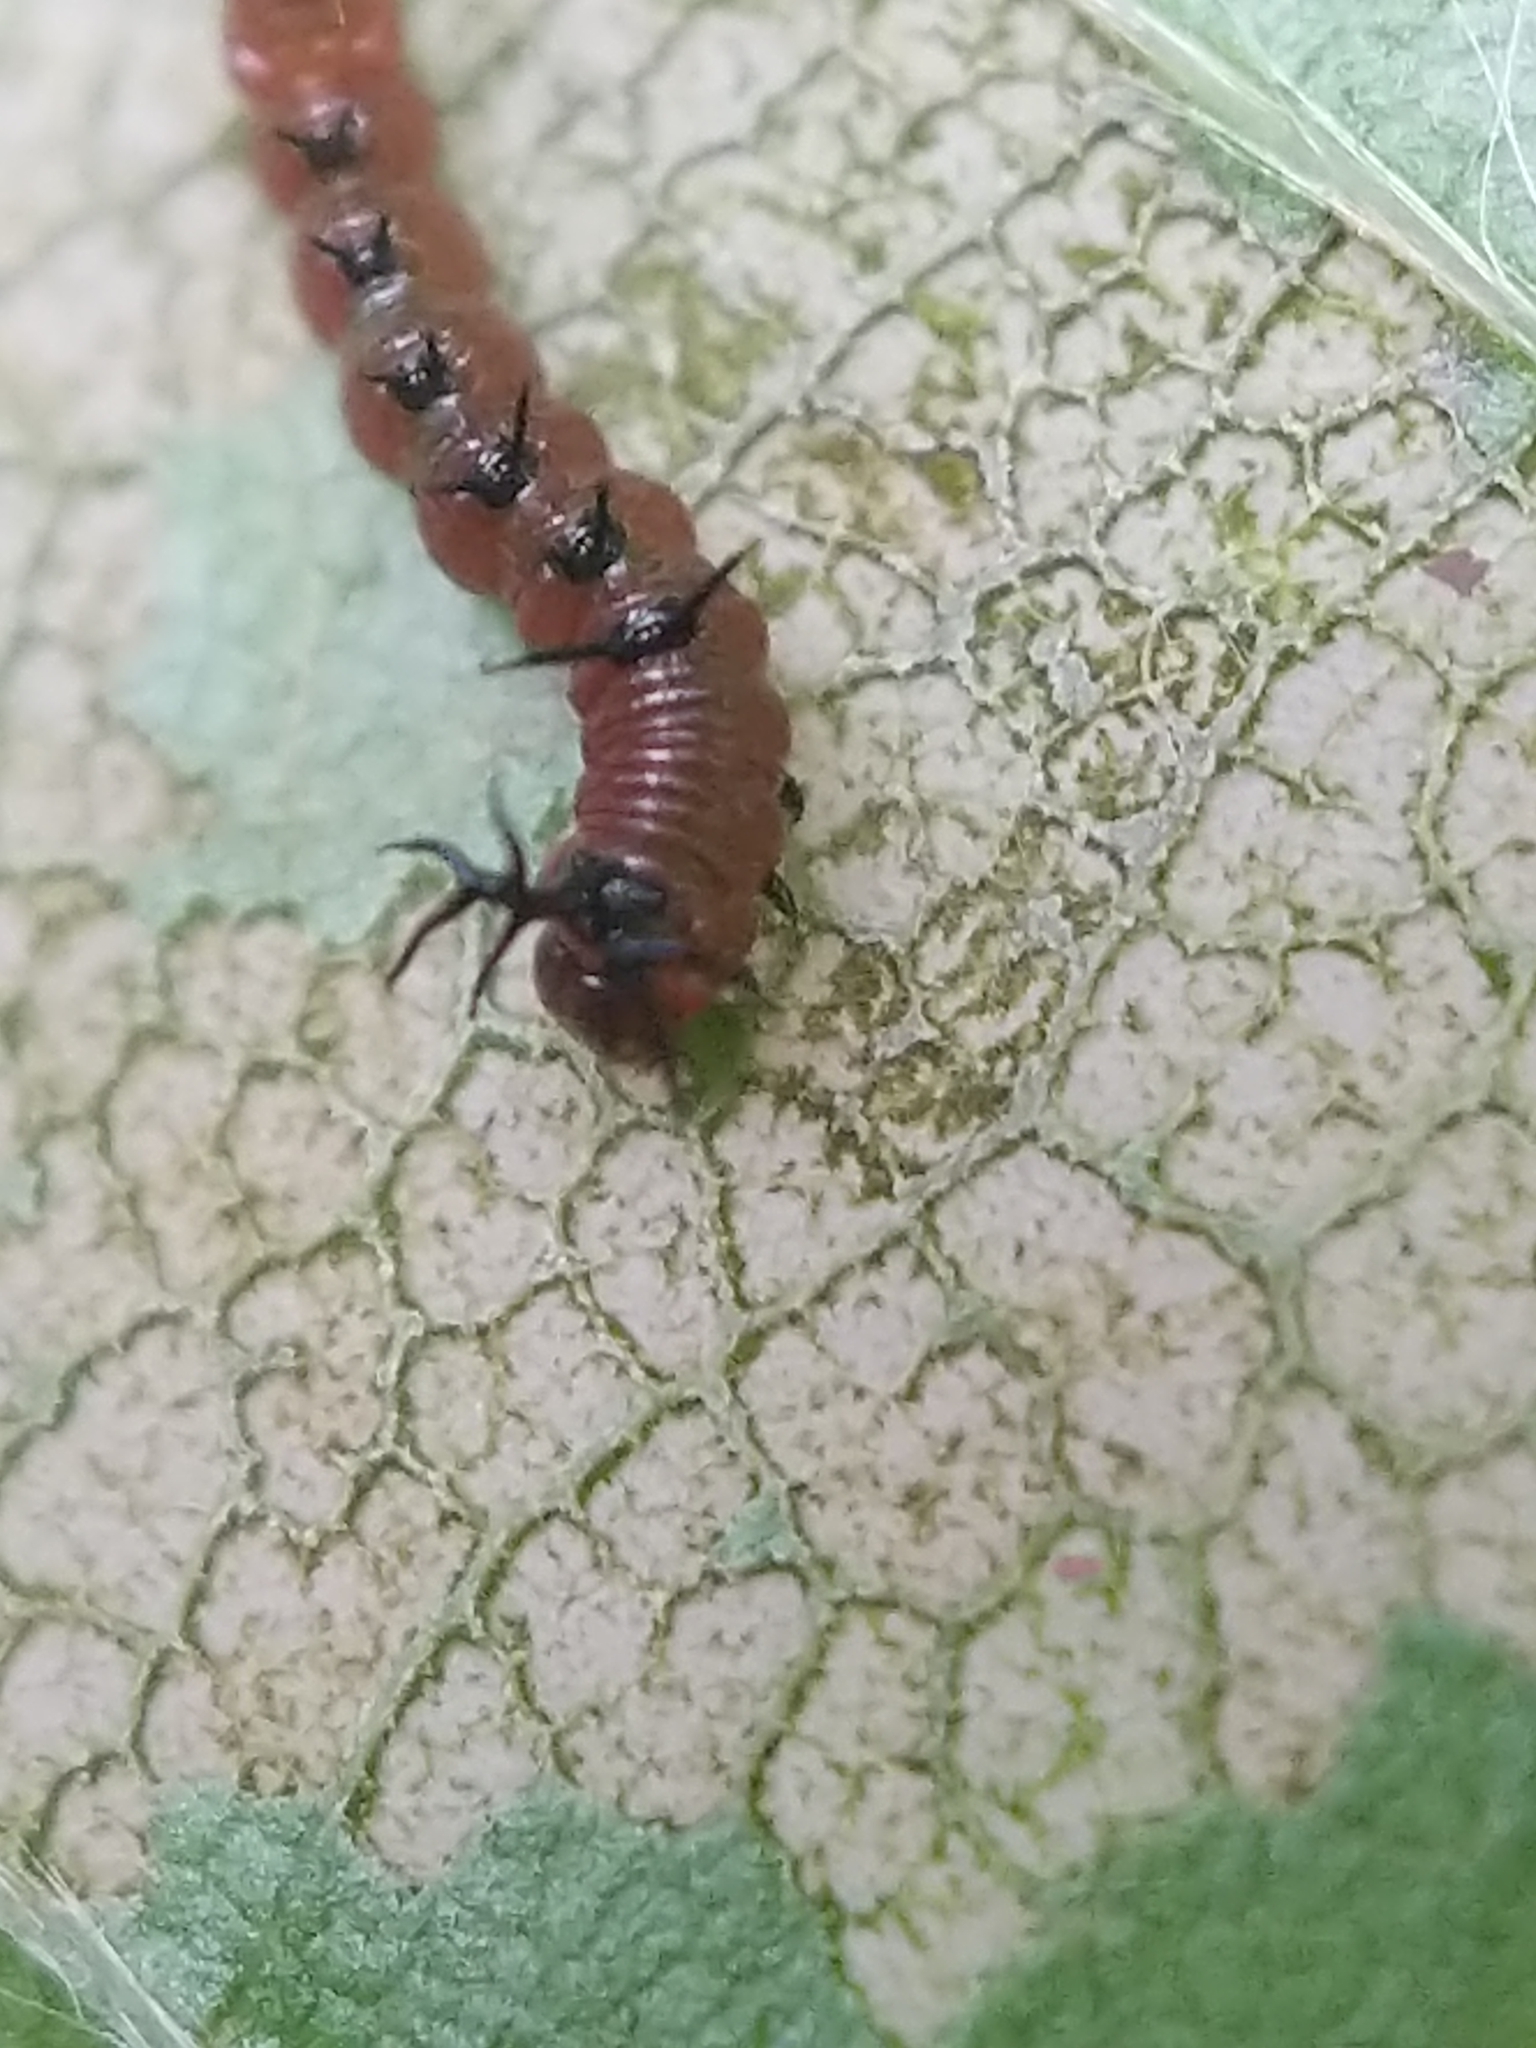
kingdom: Animalia
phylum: Arthropoda
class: Insecta
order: Lepidoptera
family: Notodontidae
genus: Disphragis
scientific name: Disphragis Cecrita guttivitta
